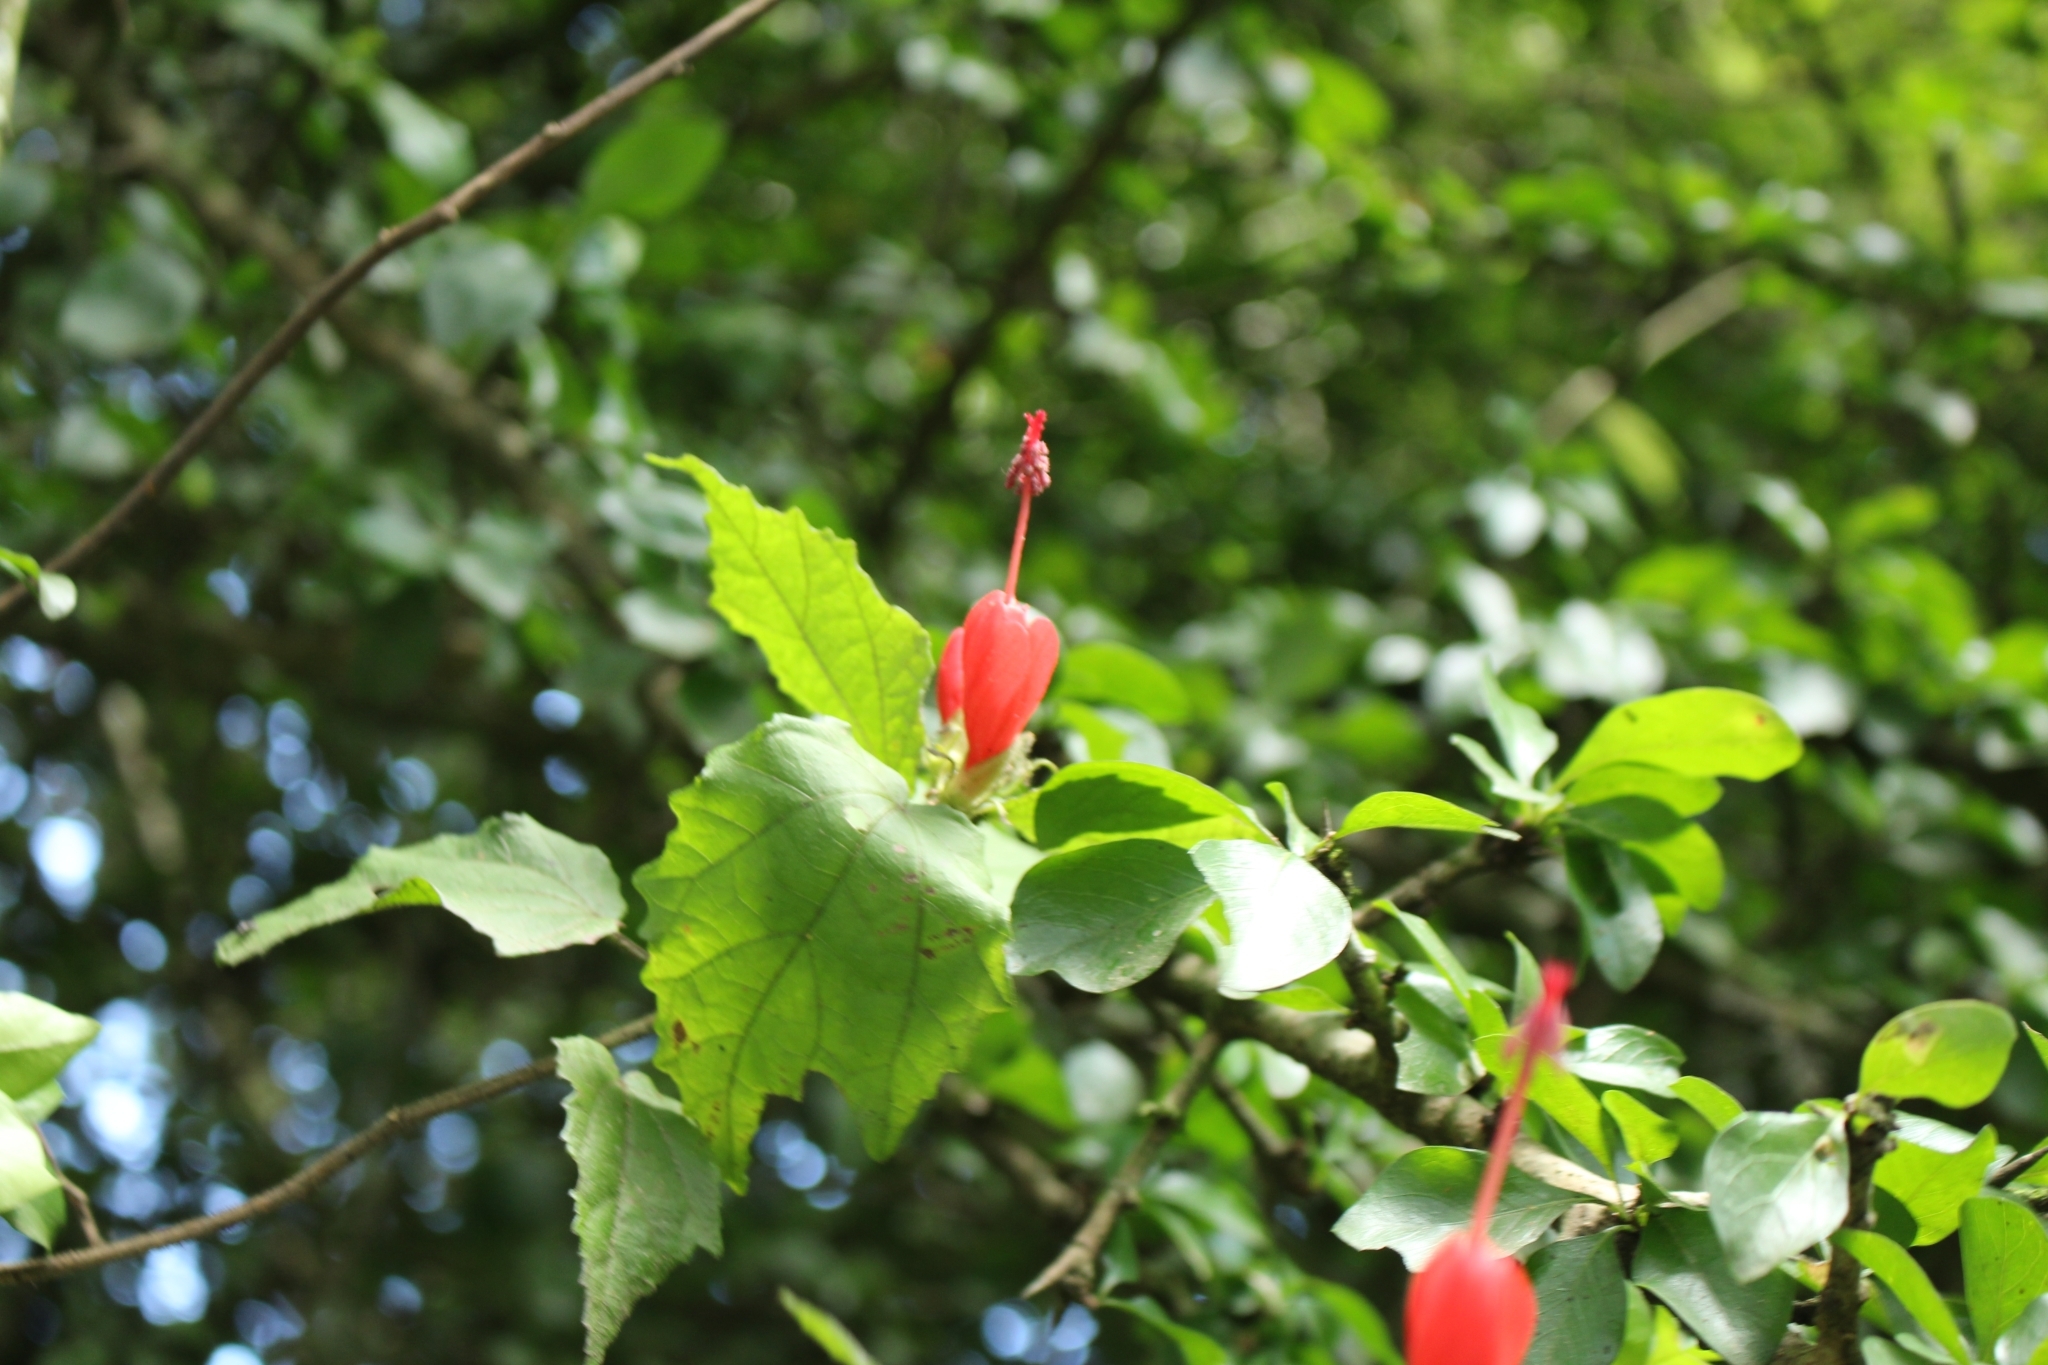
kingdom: Plantae
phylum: Tracheophyta
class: Magnoliopsida
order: Malvales
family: Malvaceae
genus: Malvaviscus
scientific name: Malvaviscus arboreus
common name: Wax mallow
